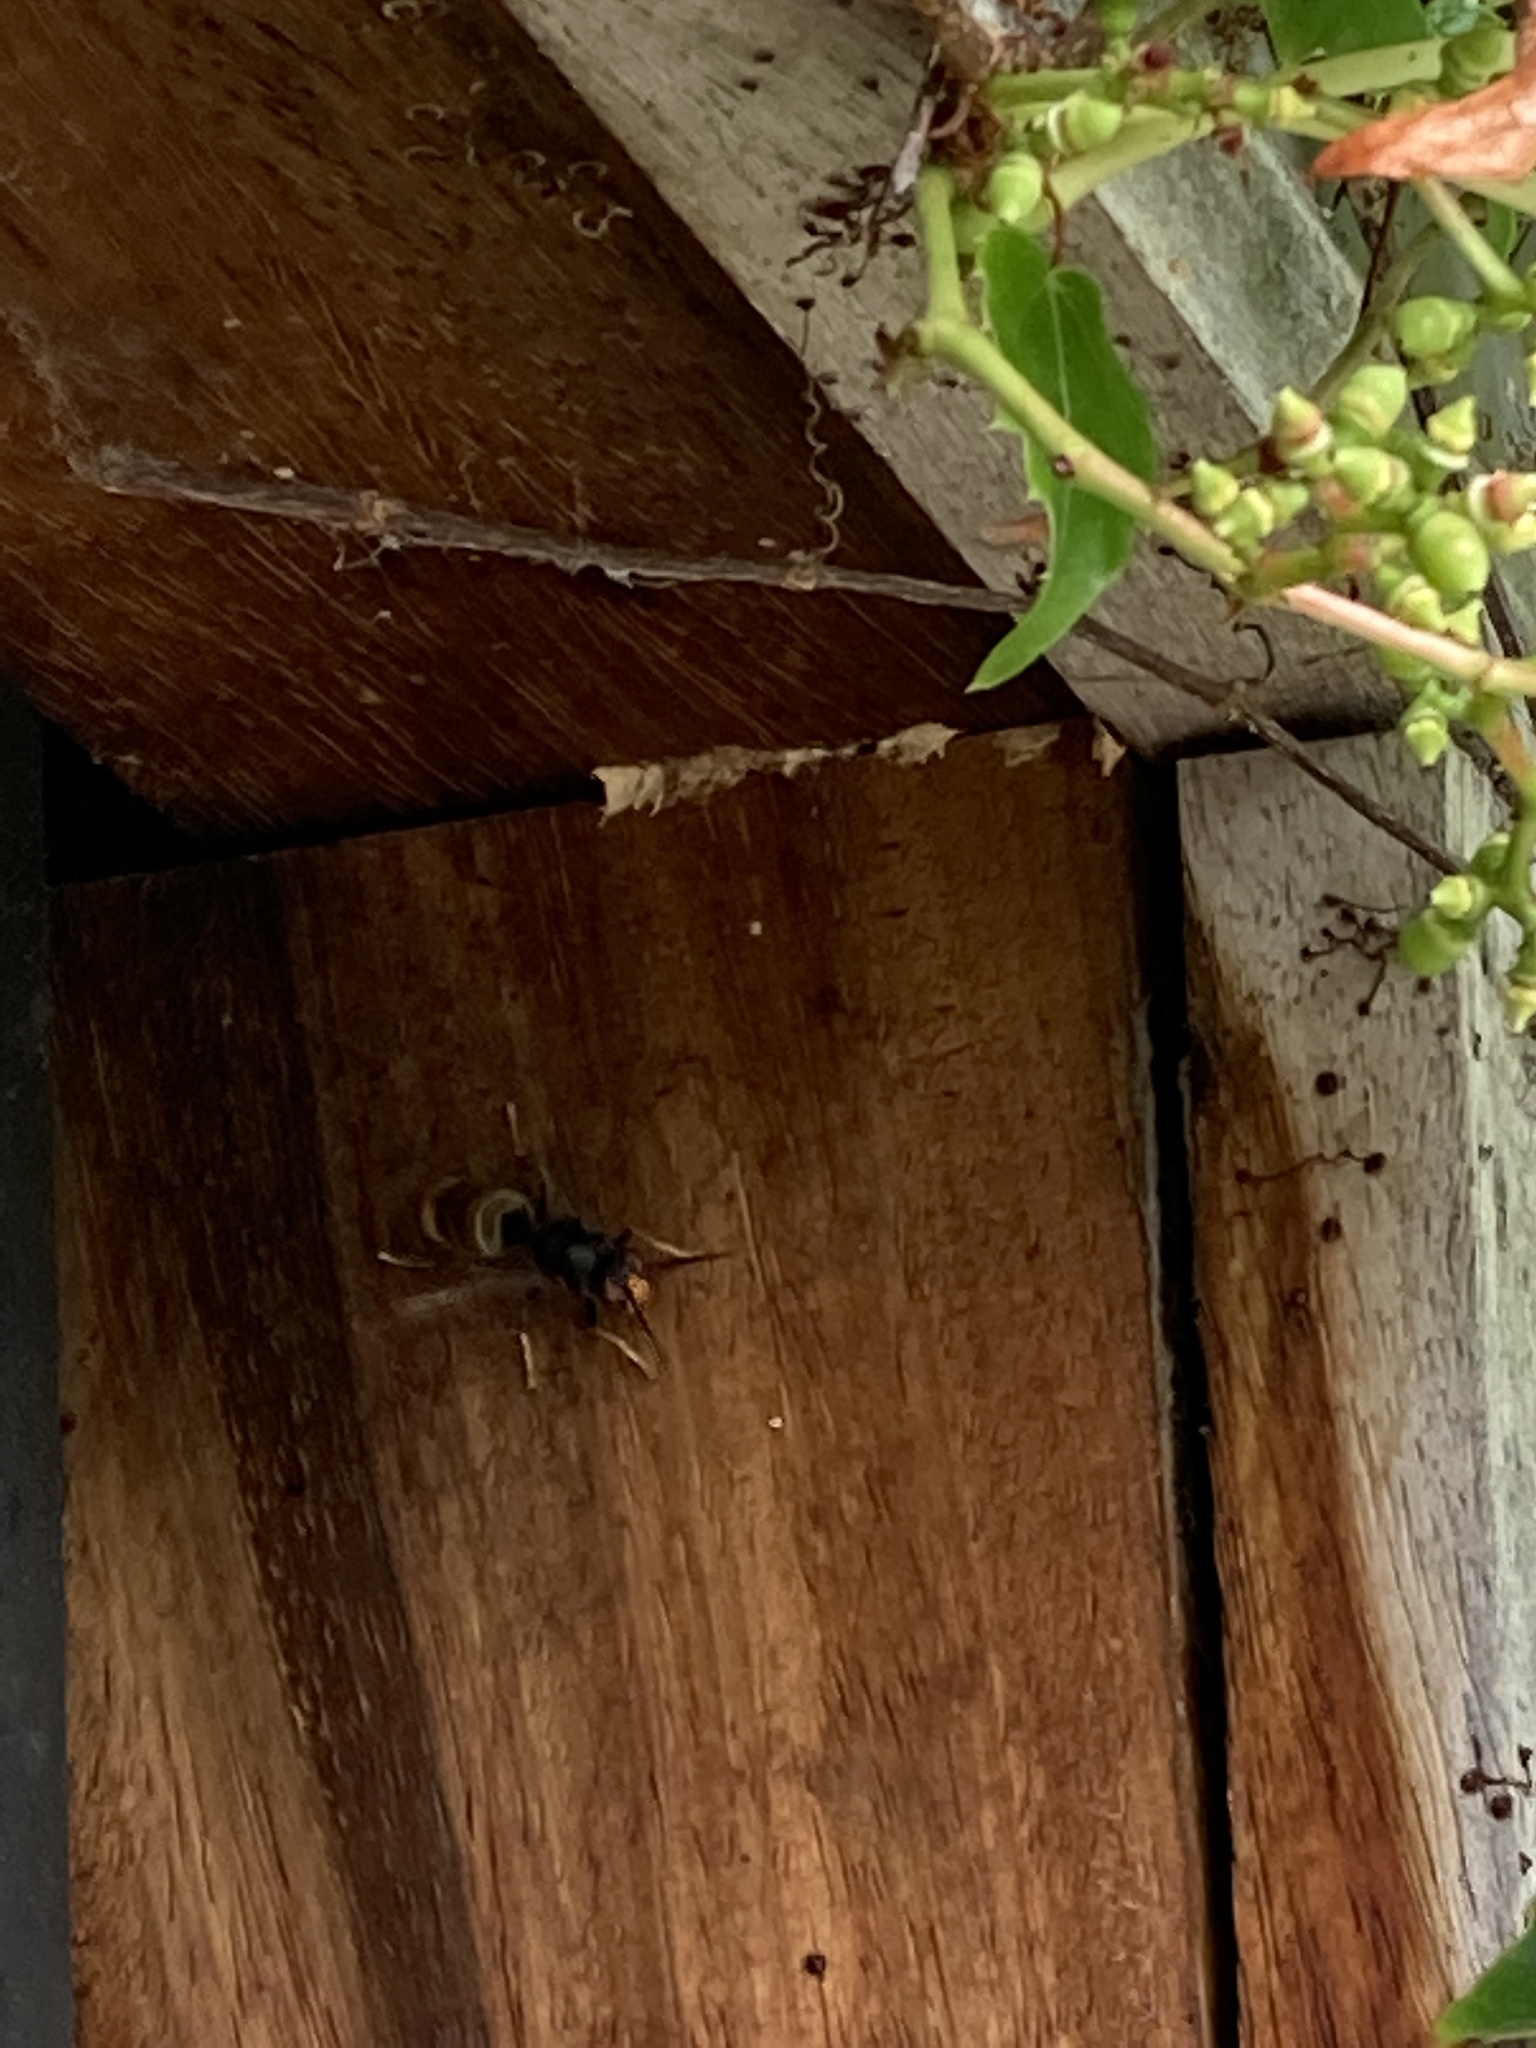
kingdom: Animalia
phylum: Arthropoda
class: Insecta
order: Hymenoptera
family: Vespidae
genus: Vespa
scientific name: Vespa velutina
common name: Asian hornet
